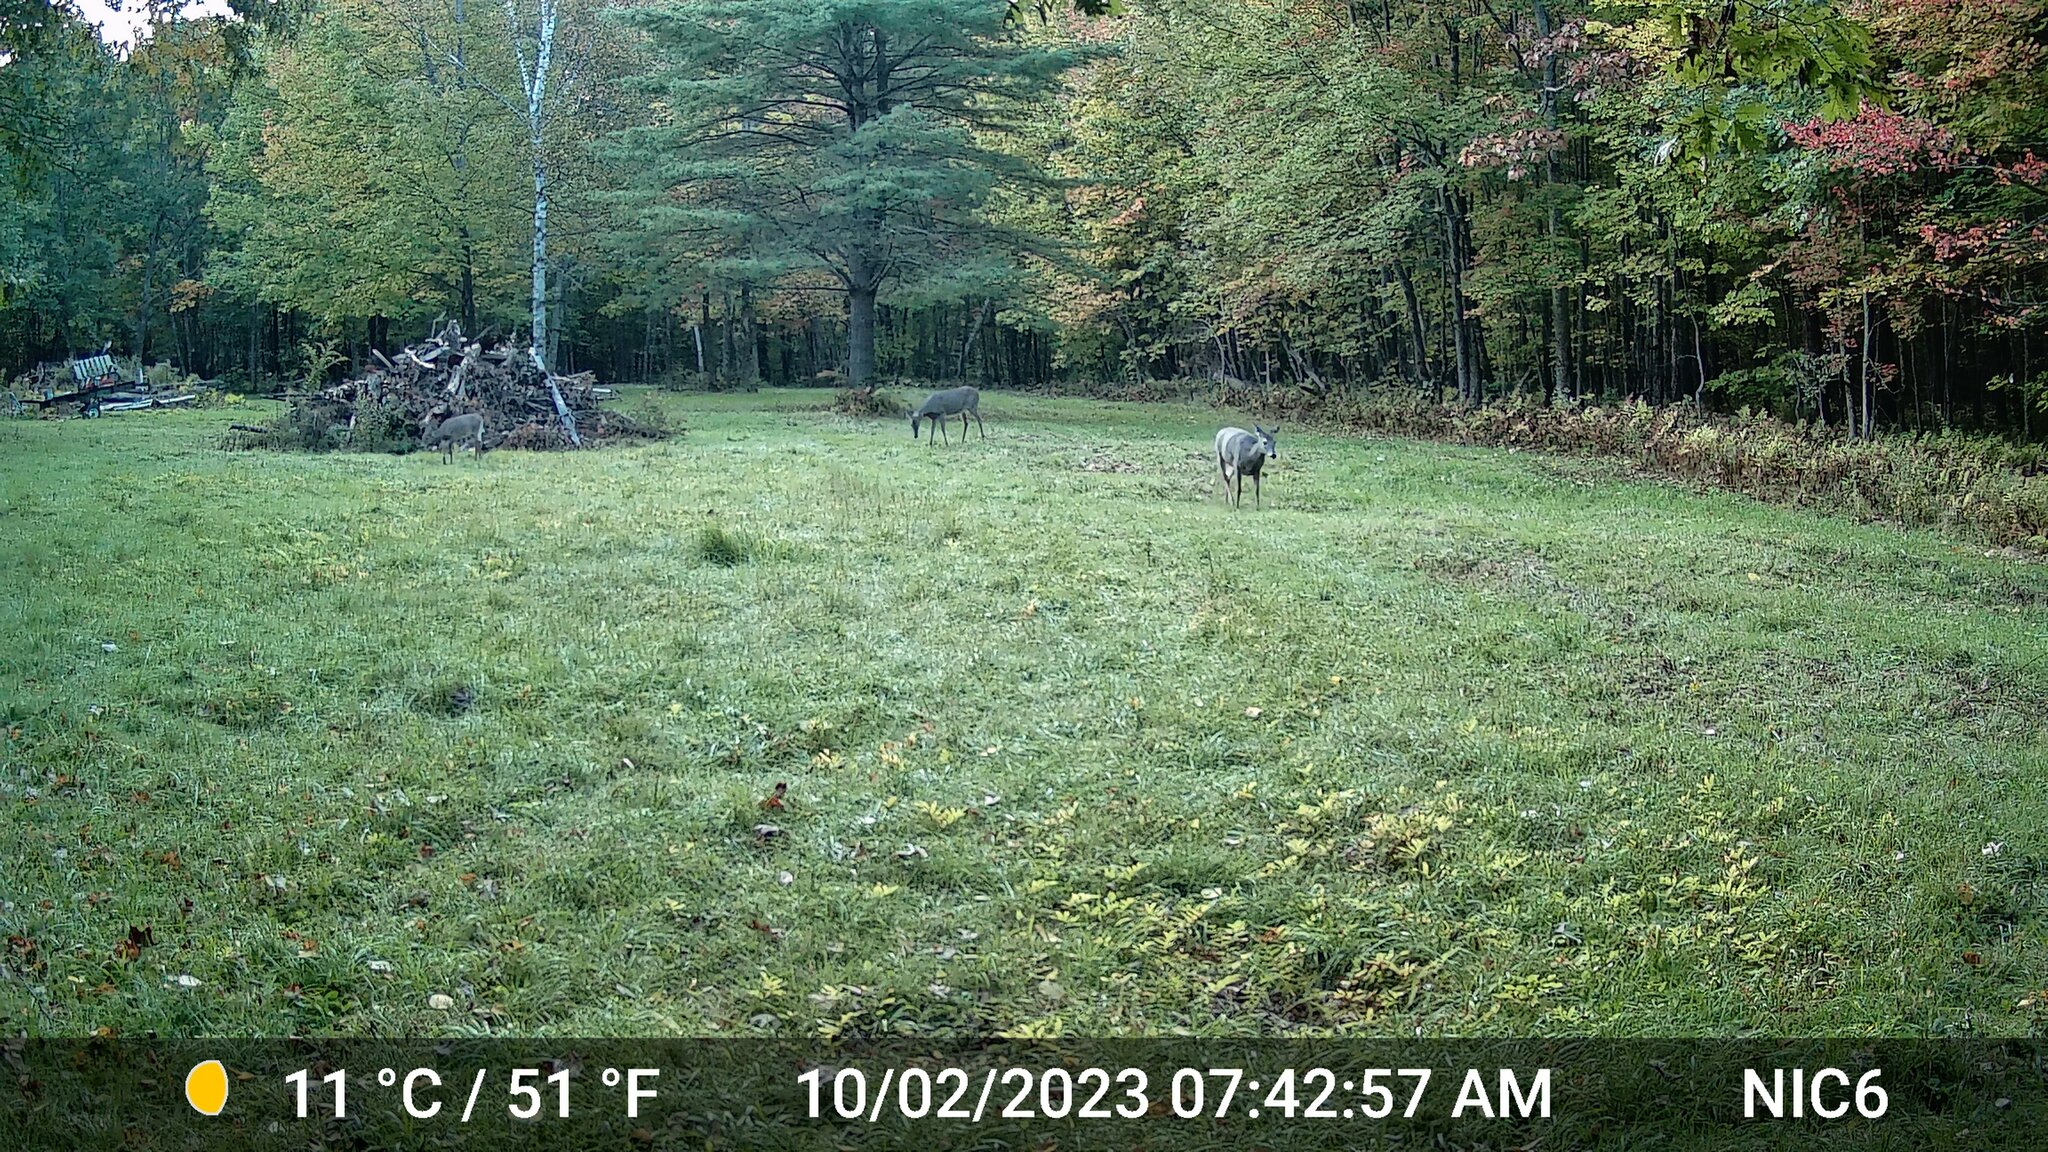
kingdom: Animalia
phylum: Chordata
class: Mammalia
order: Artiodactyla
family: Cervidae
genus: Odocoileus
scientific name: Odocoileus virginianus
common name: White-tailed deer
